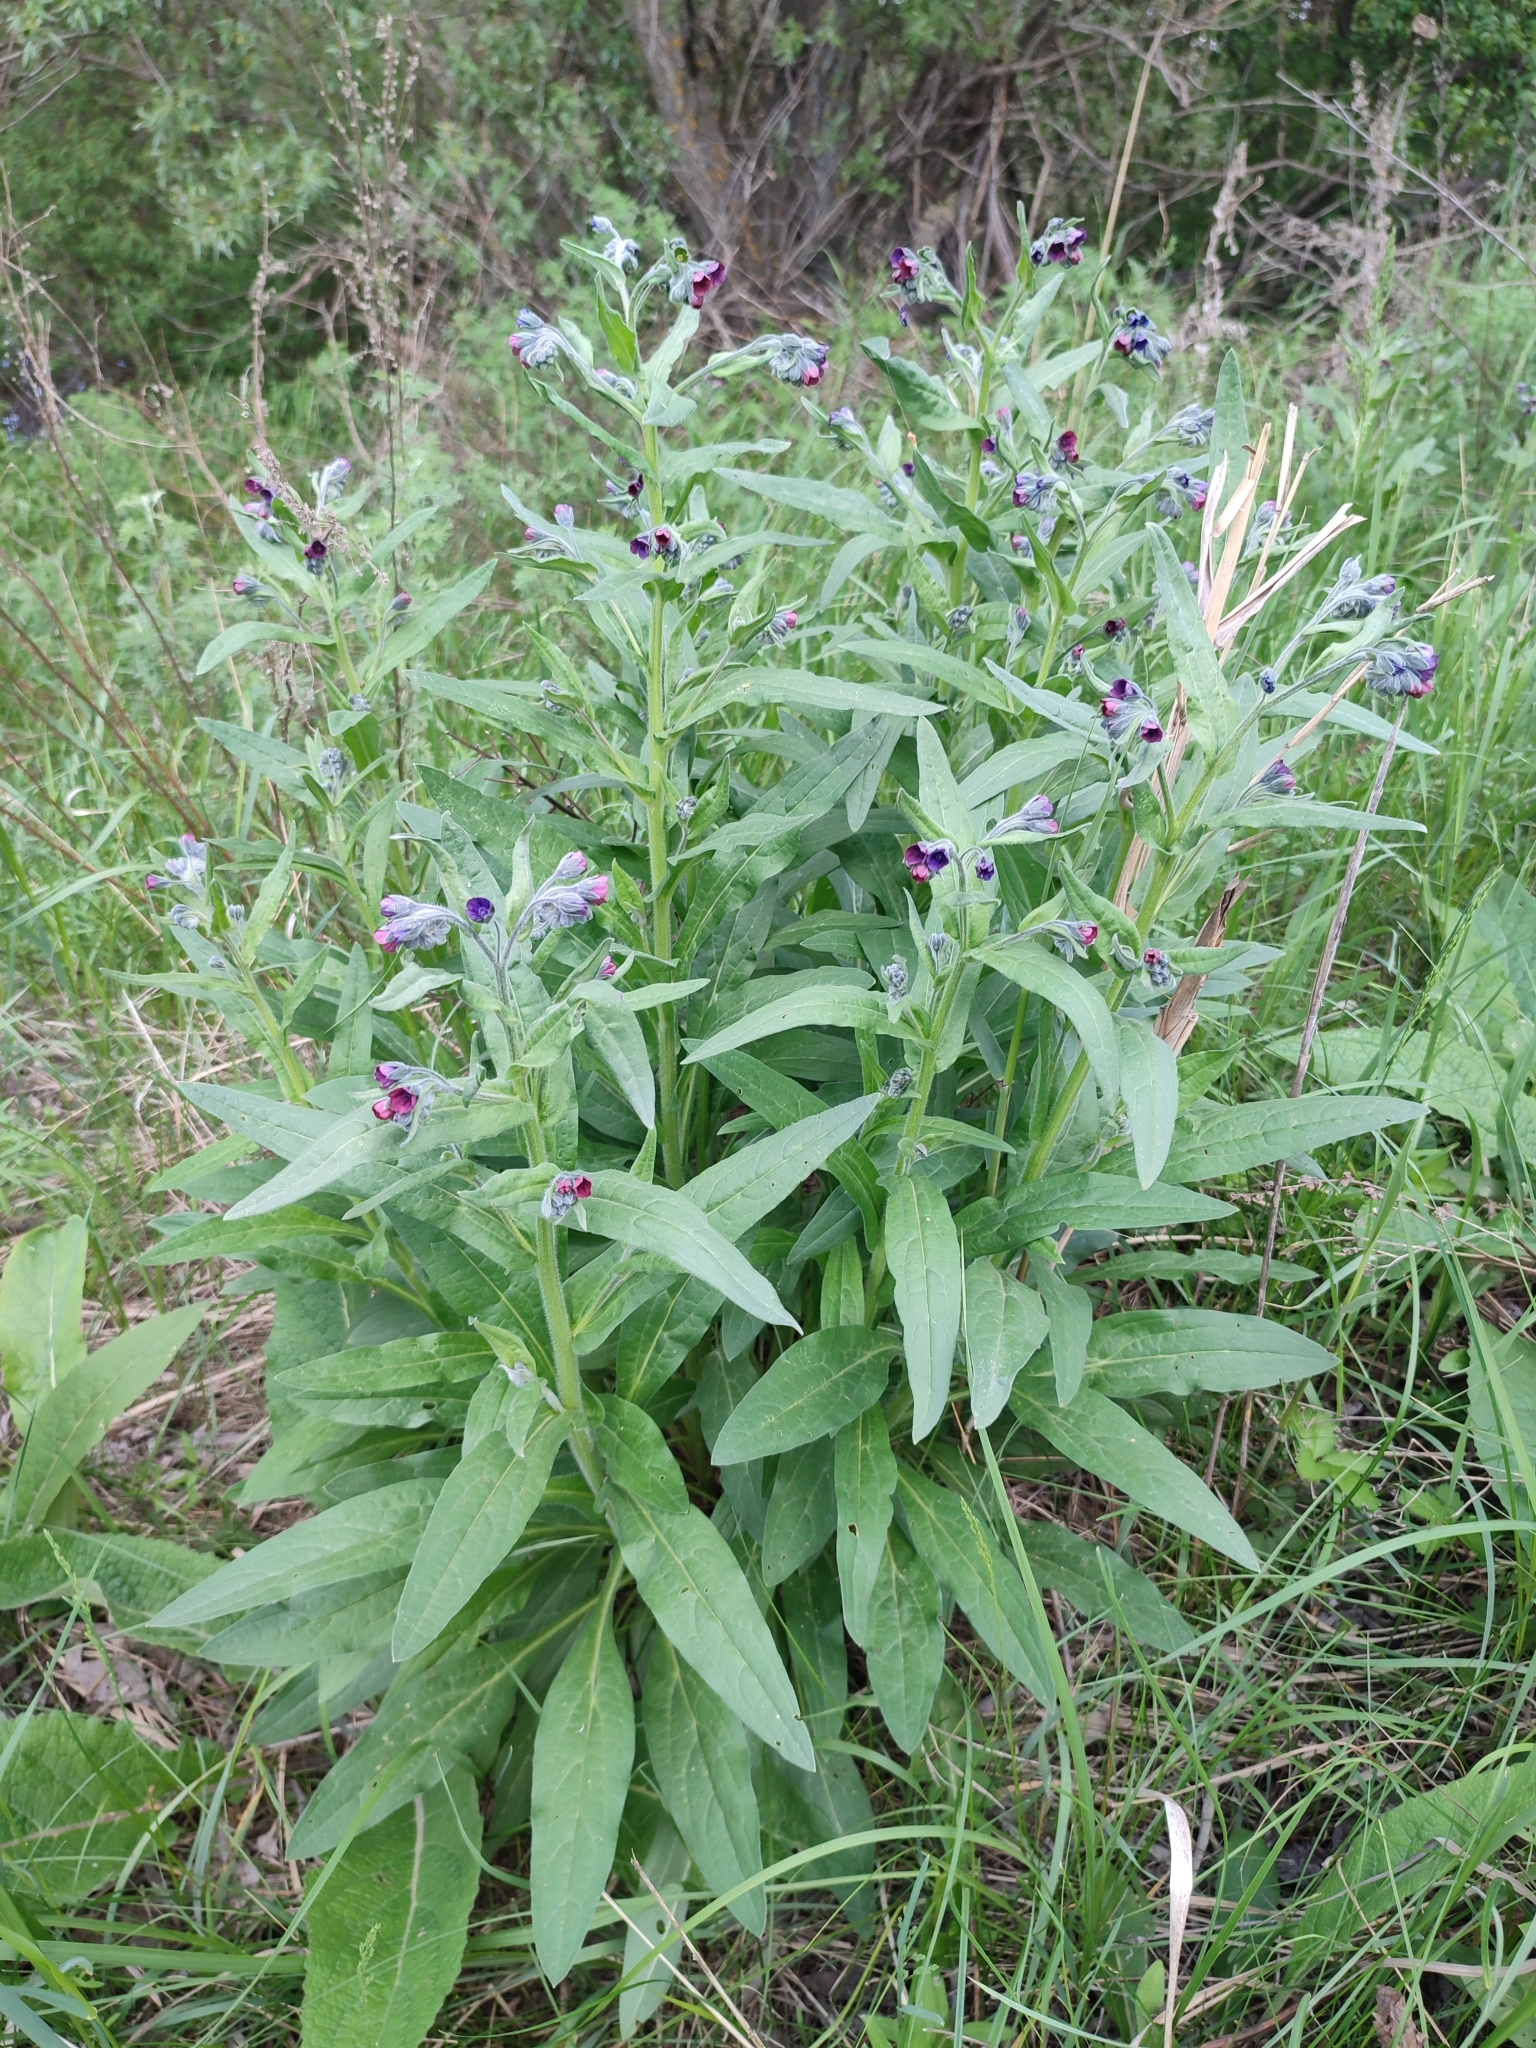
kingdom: Plantae
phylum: Tracheophyta
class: Magnoliopsida
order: Boraginales
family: Boraginaceae
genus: Cynoglossum
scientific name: Cynoglossum officinale
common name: Hound's-tongue
